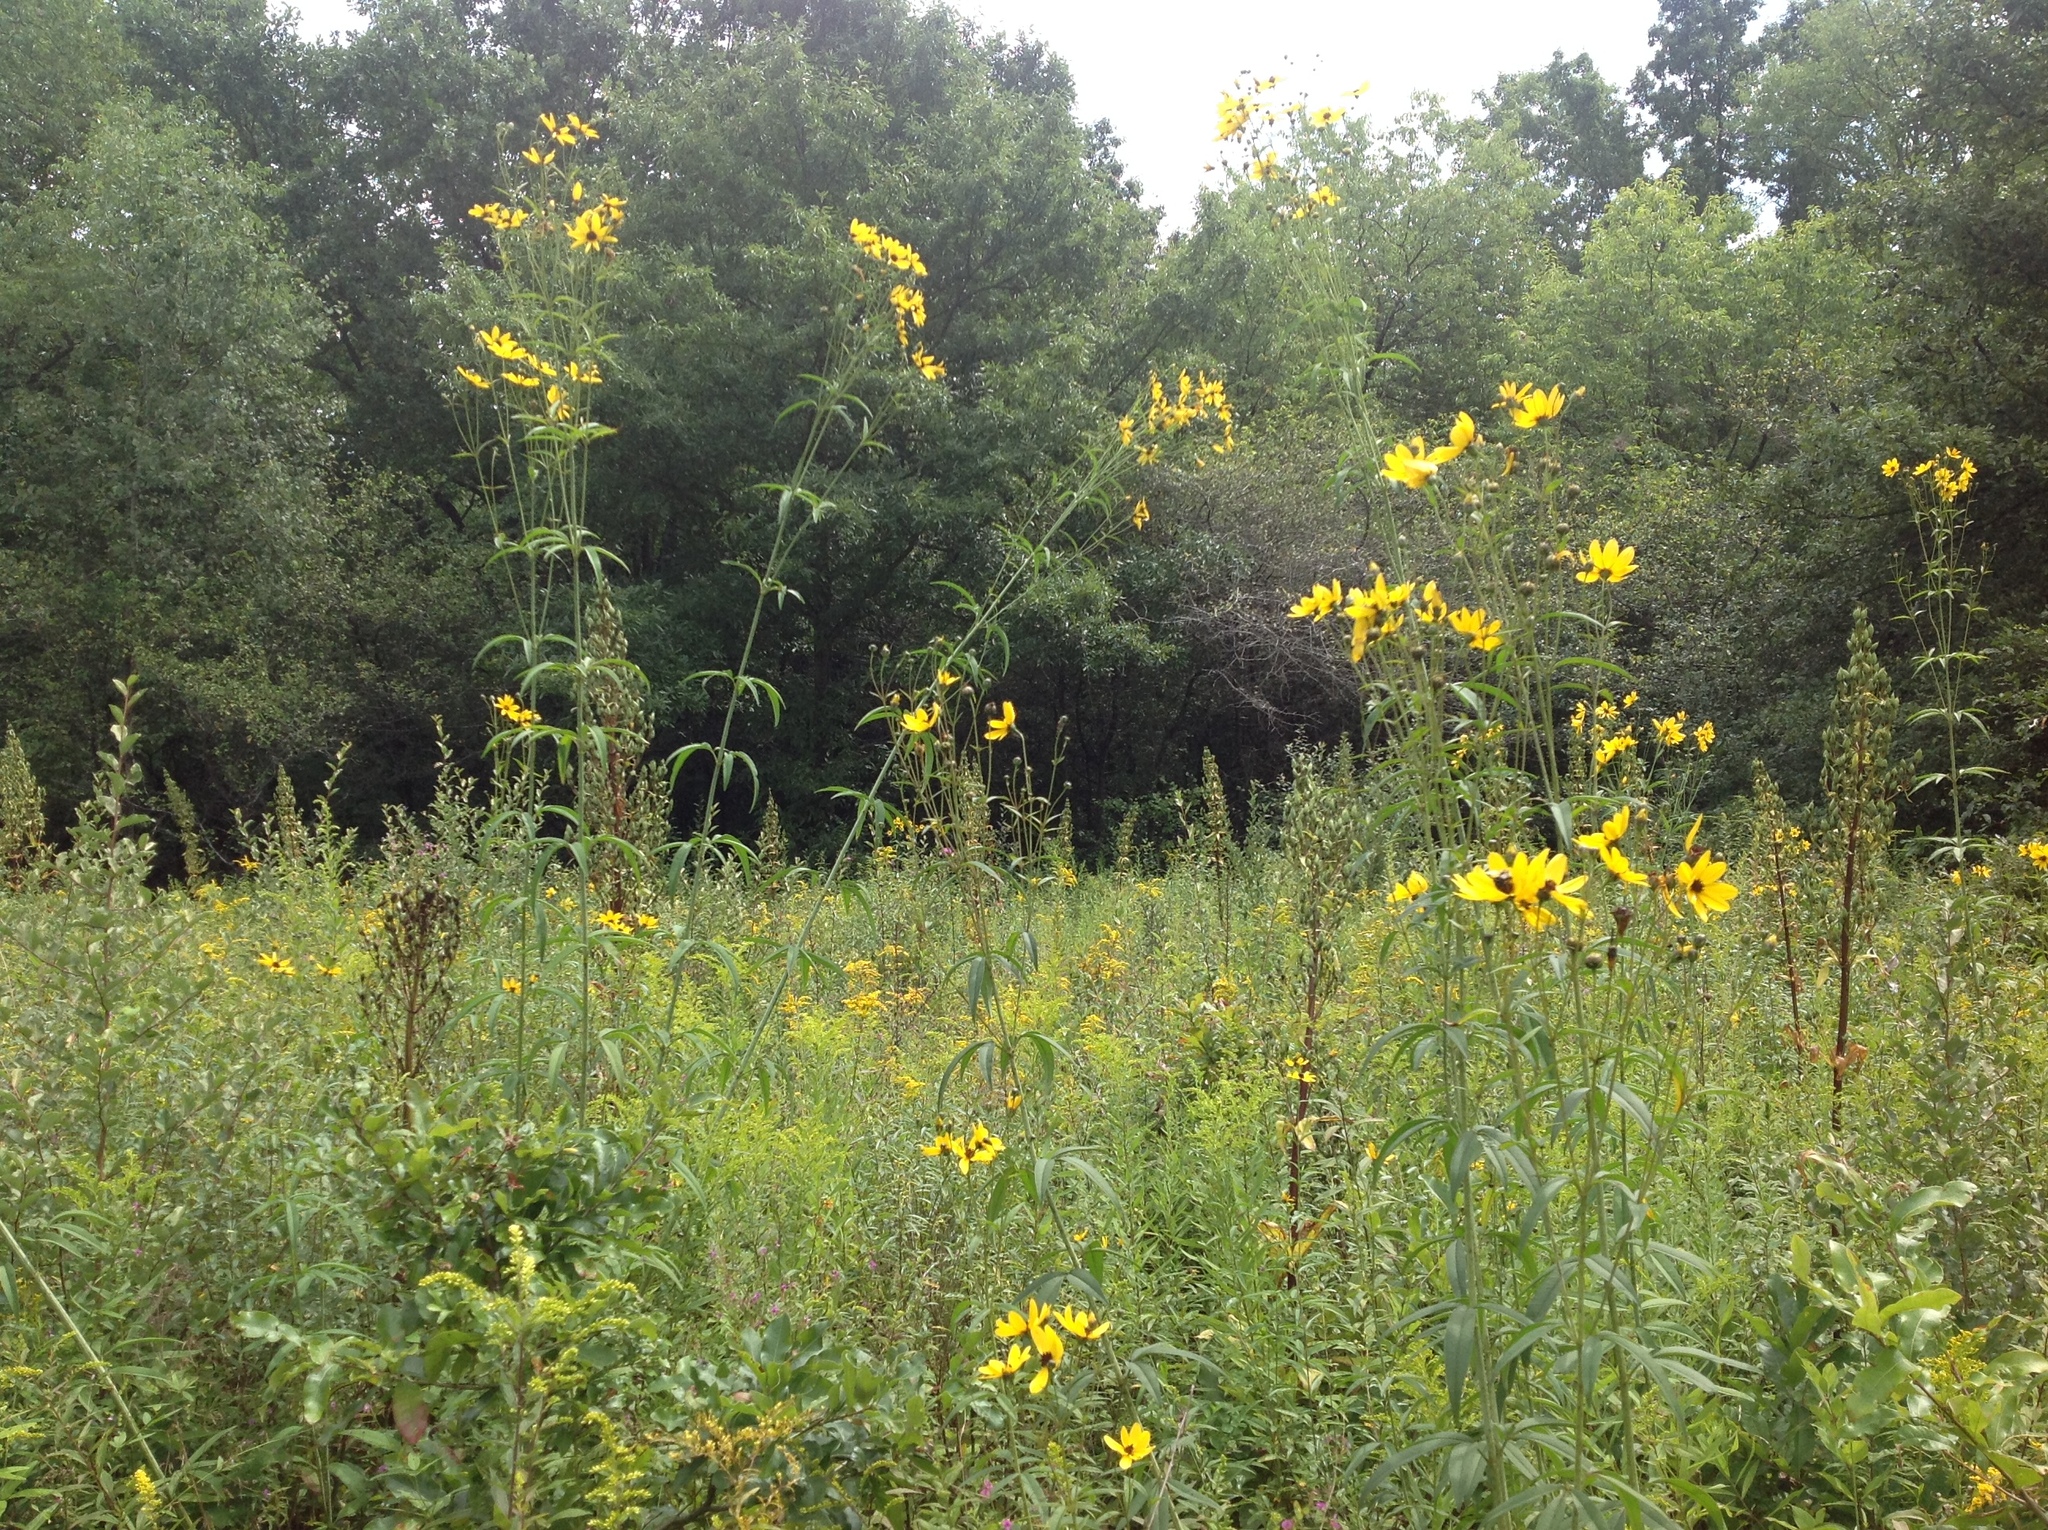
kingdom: Plantae
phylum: Tracheophyta
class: Magnoliopsida
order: Asterales
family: Asteraceae
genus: Coreopsis
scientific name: Coreopsis tripteris
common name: Tall coreopsis
